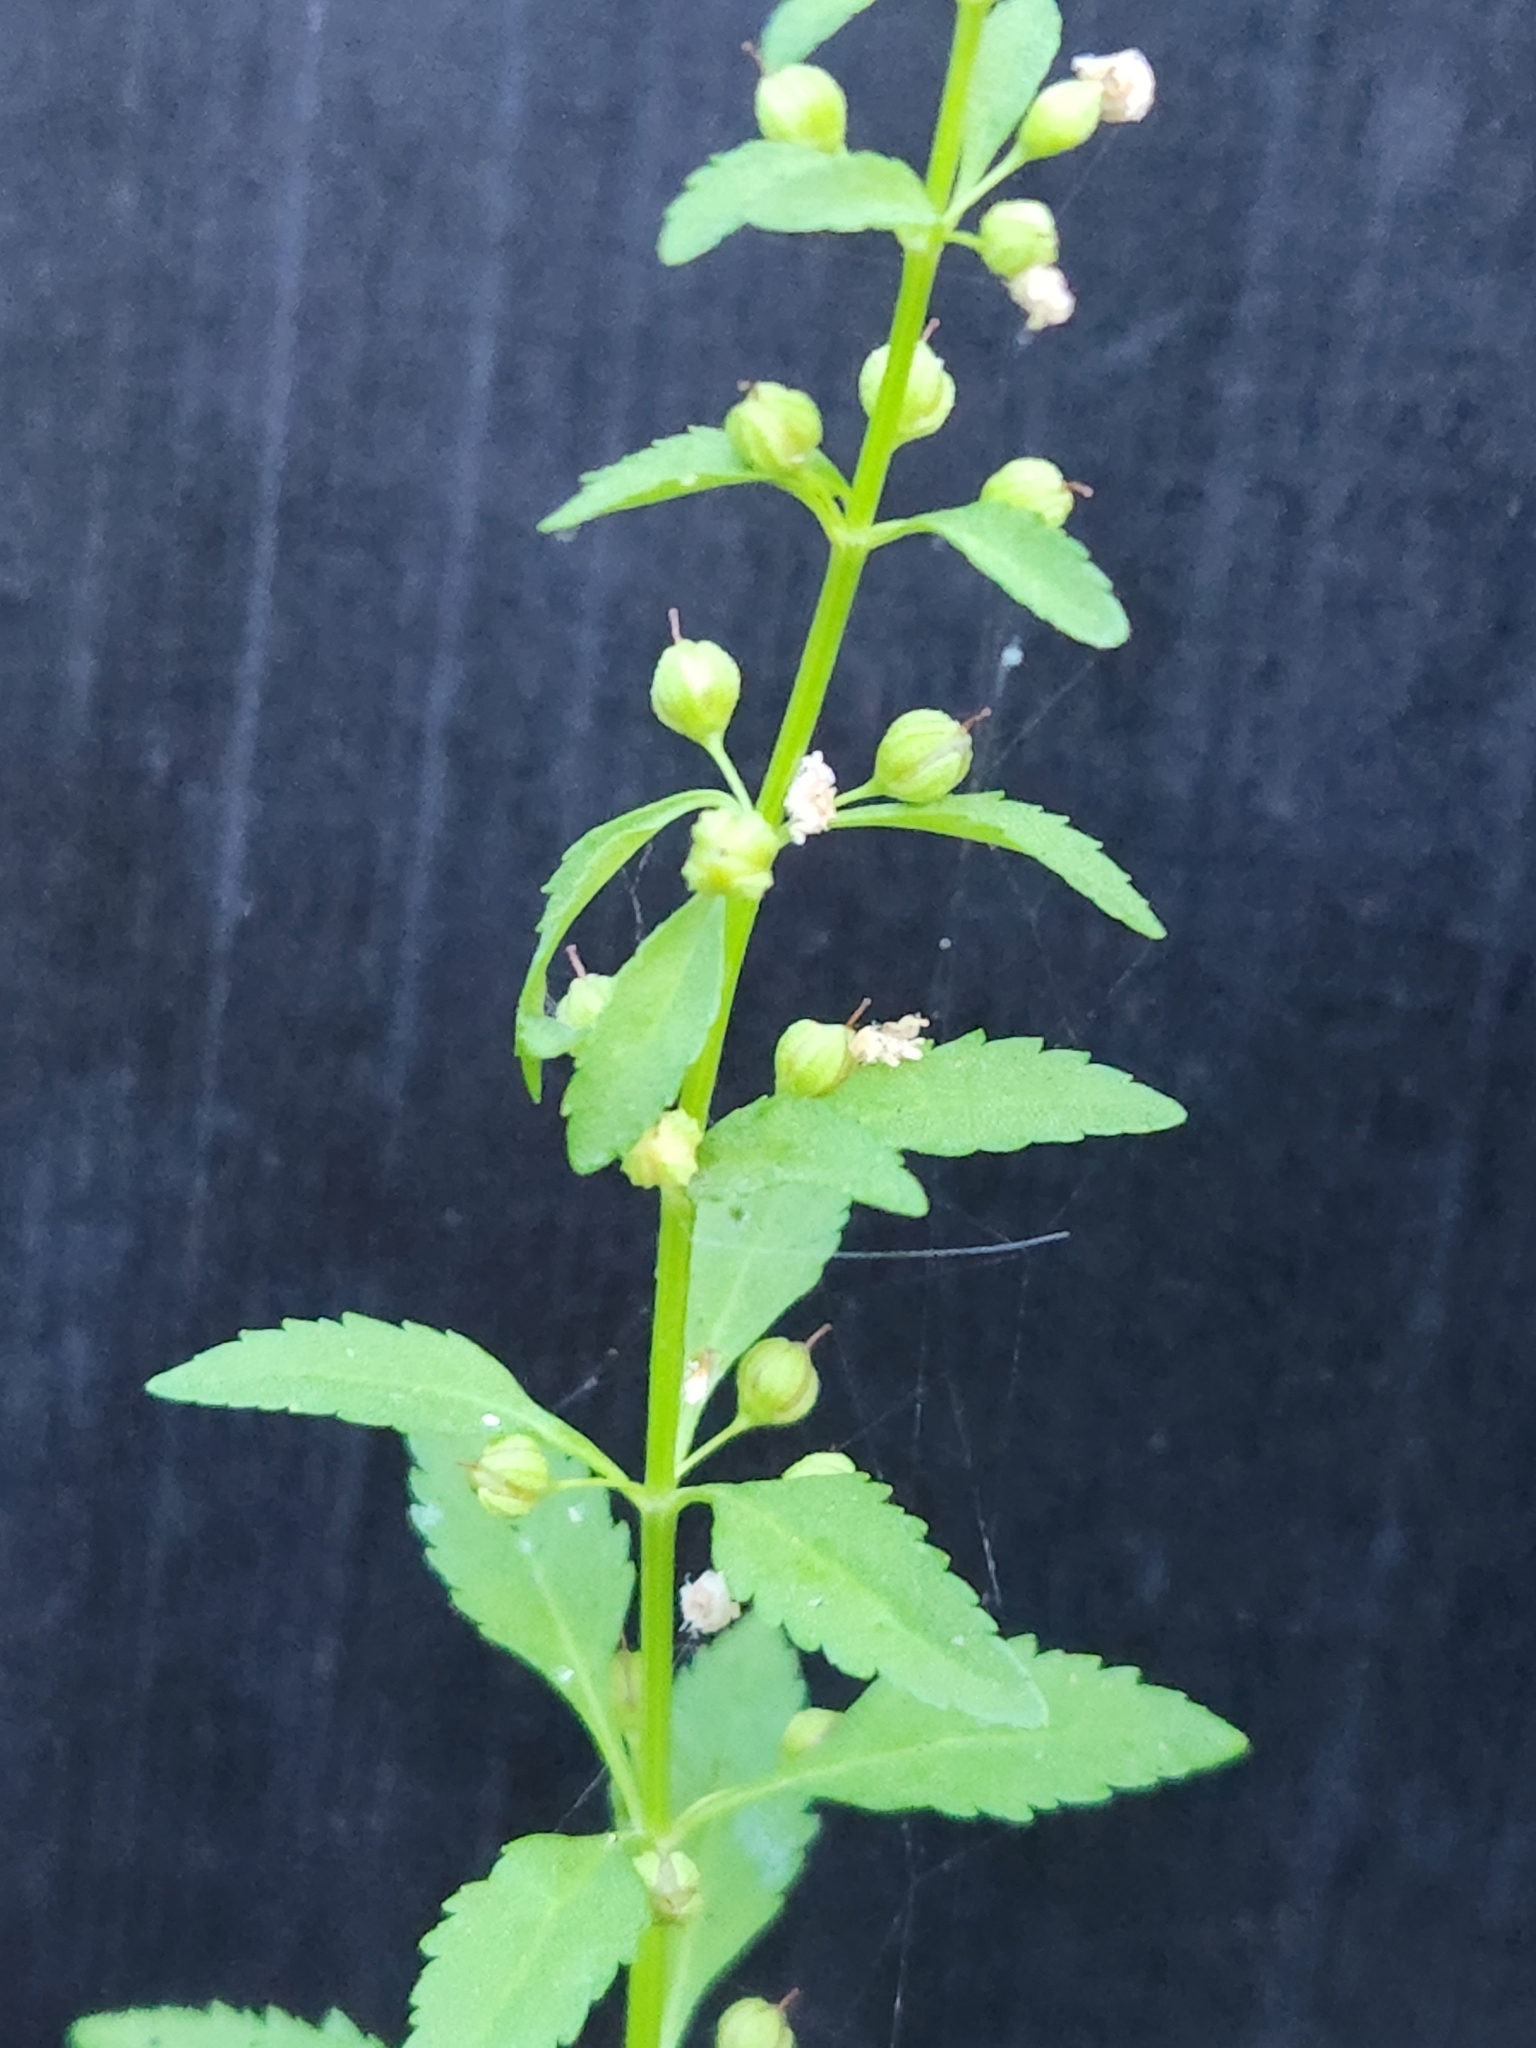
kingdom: Plantae
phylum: Tracheophyta
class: Magnoliopsida
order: Lamiales
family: Plantaginaceae
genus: Scoparia
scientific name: Scoparia dulcis
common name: Scoparia-weed
